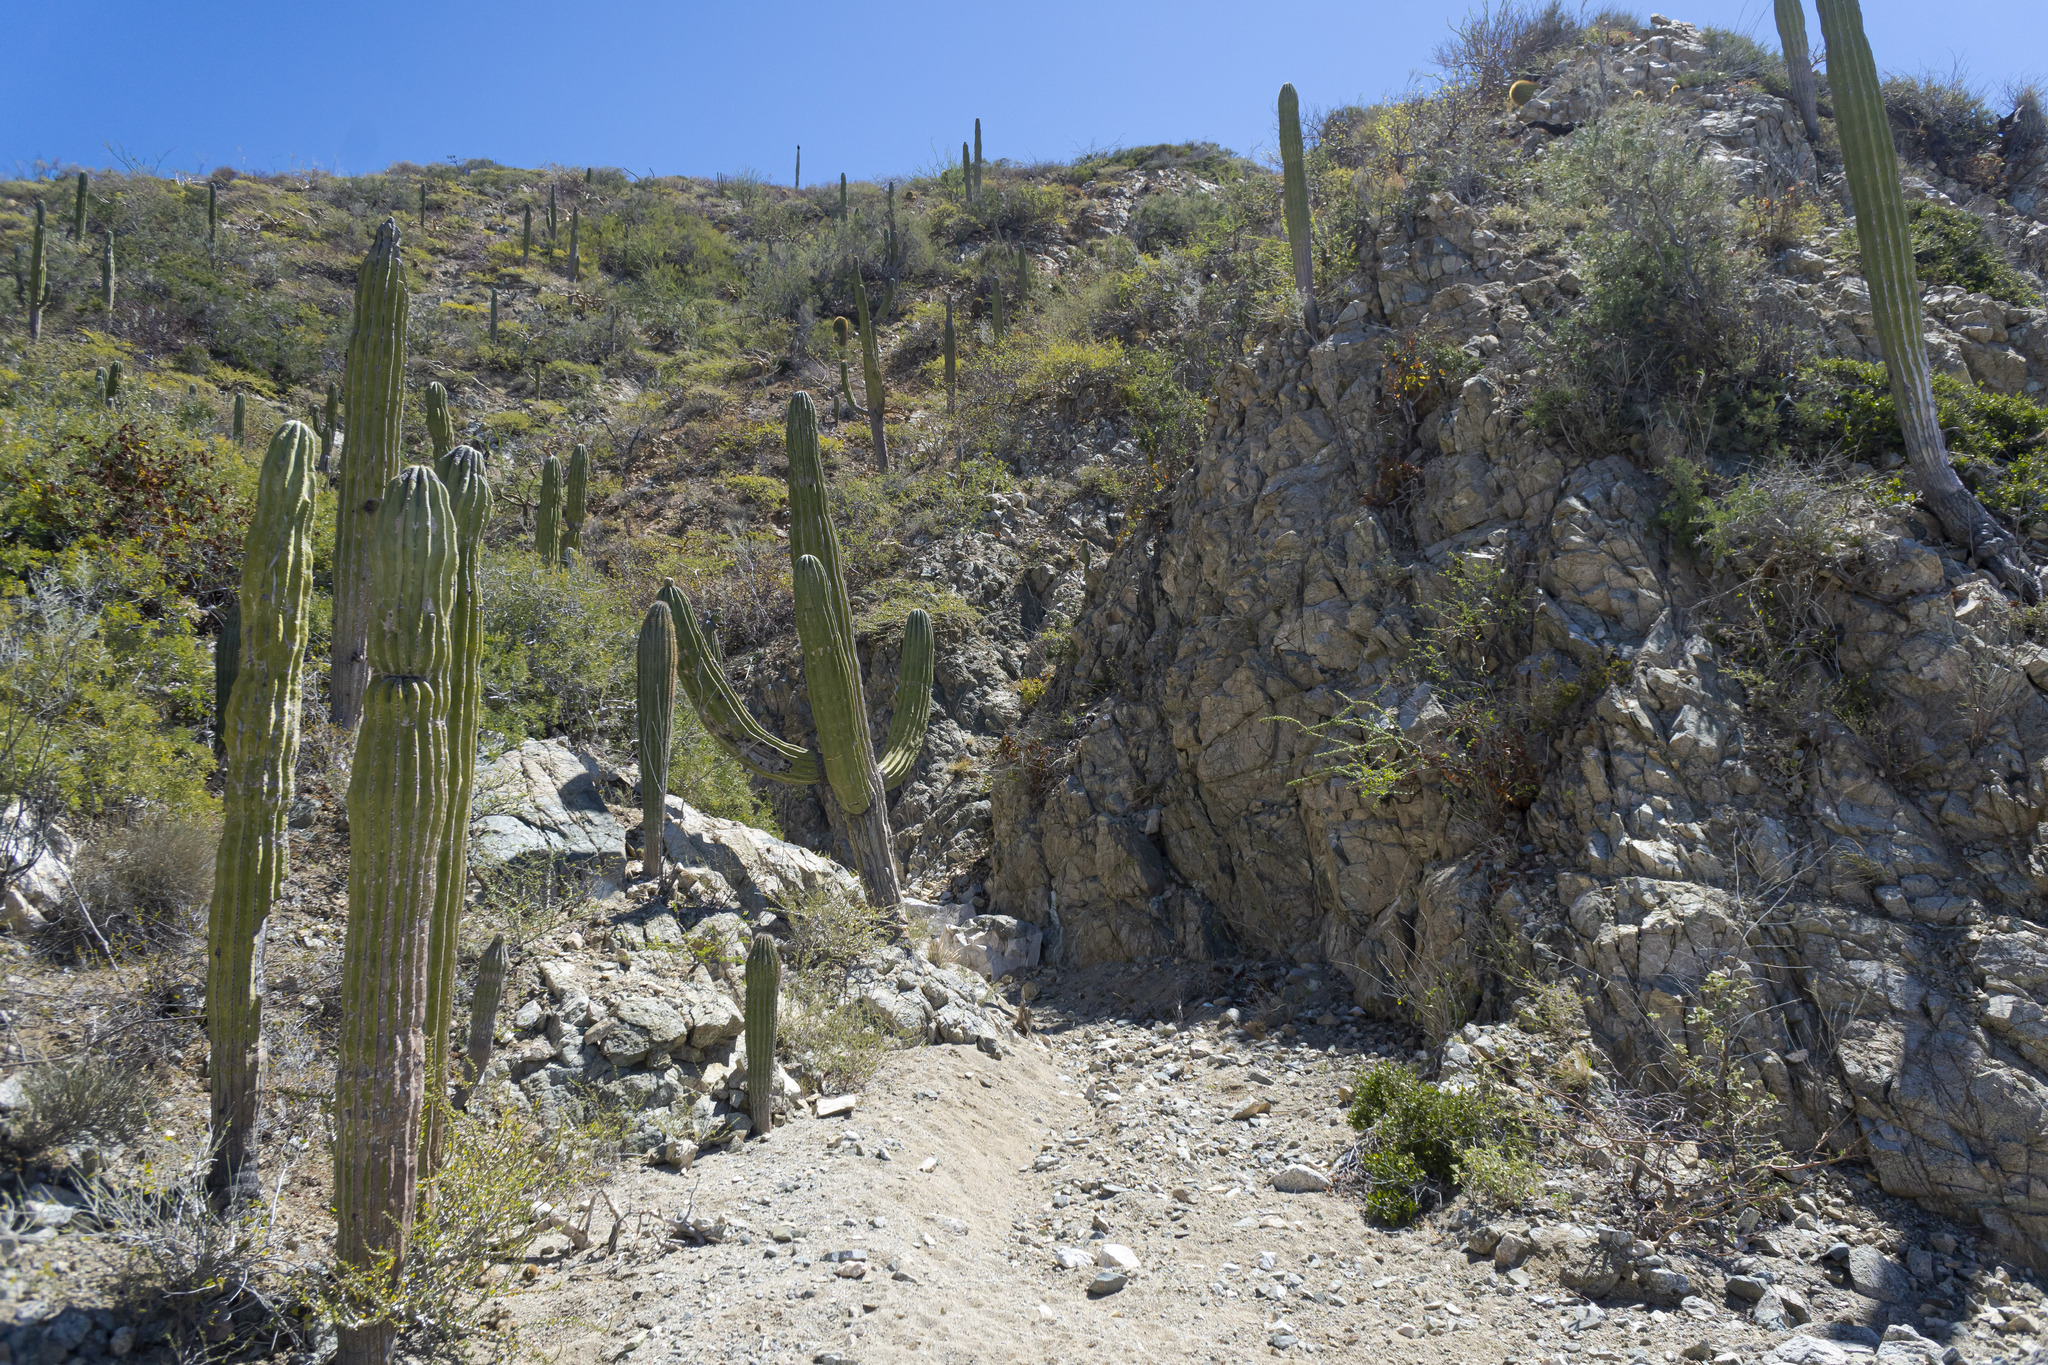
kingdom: Plantae
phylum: Tracheophyta
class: Magnoliopsida
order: Caryophyllales
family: Cactaceae
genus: Pachycereus
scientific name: Pachycereus pringlei
